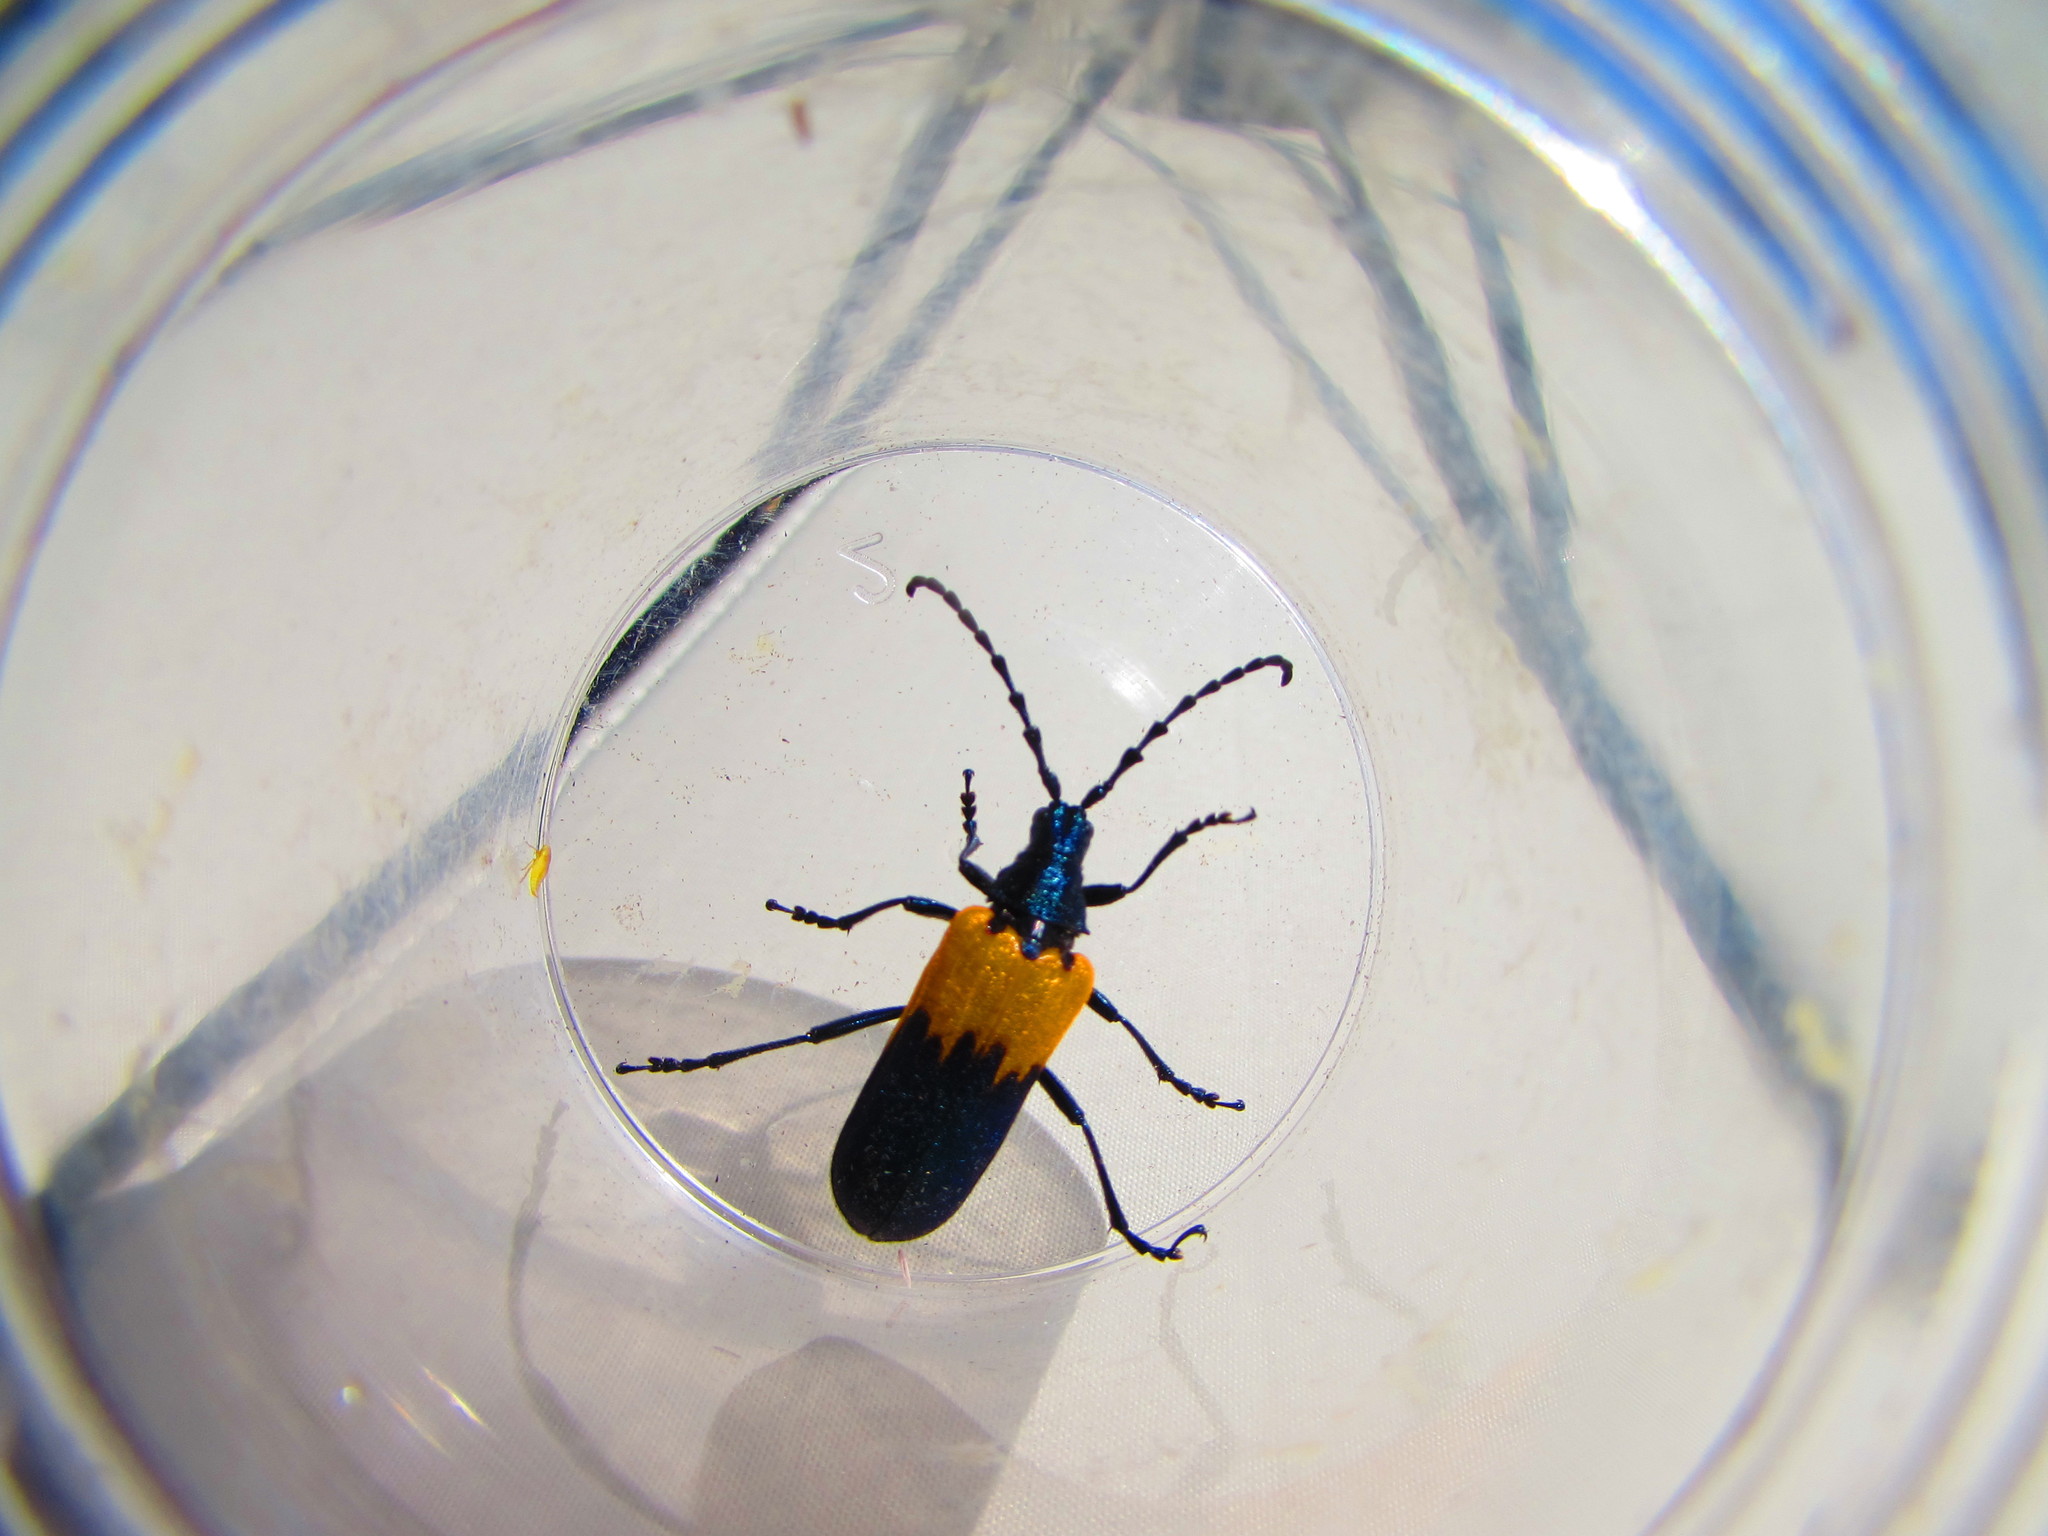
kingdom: Animalia
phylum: Arthropoda
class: Insecta
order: Coleoptera
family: Cerambycidae
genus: Desmocerus
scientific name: Desmocerus palliatus
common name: Eastern elderberry borer
